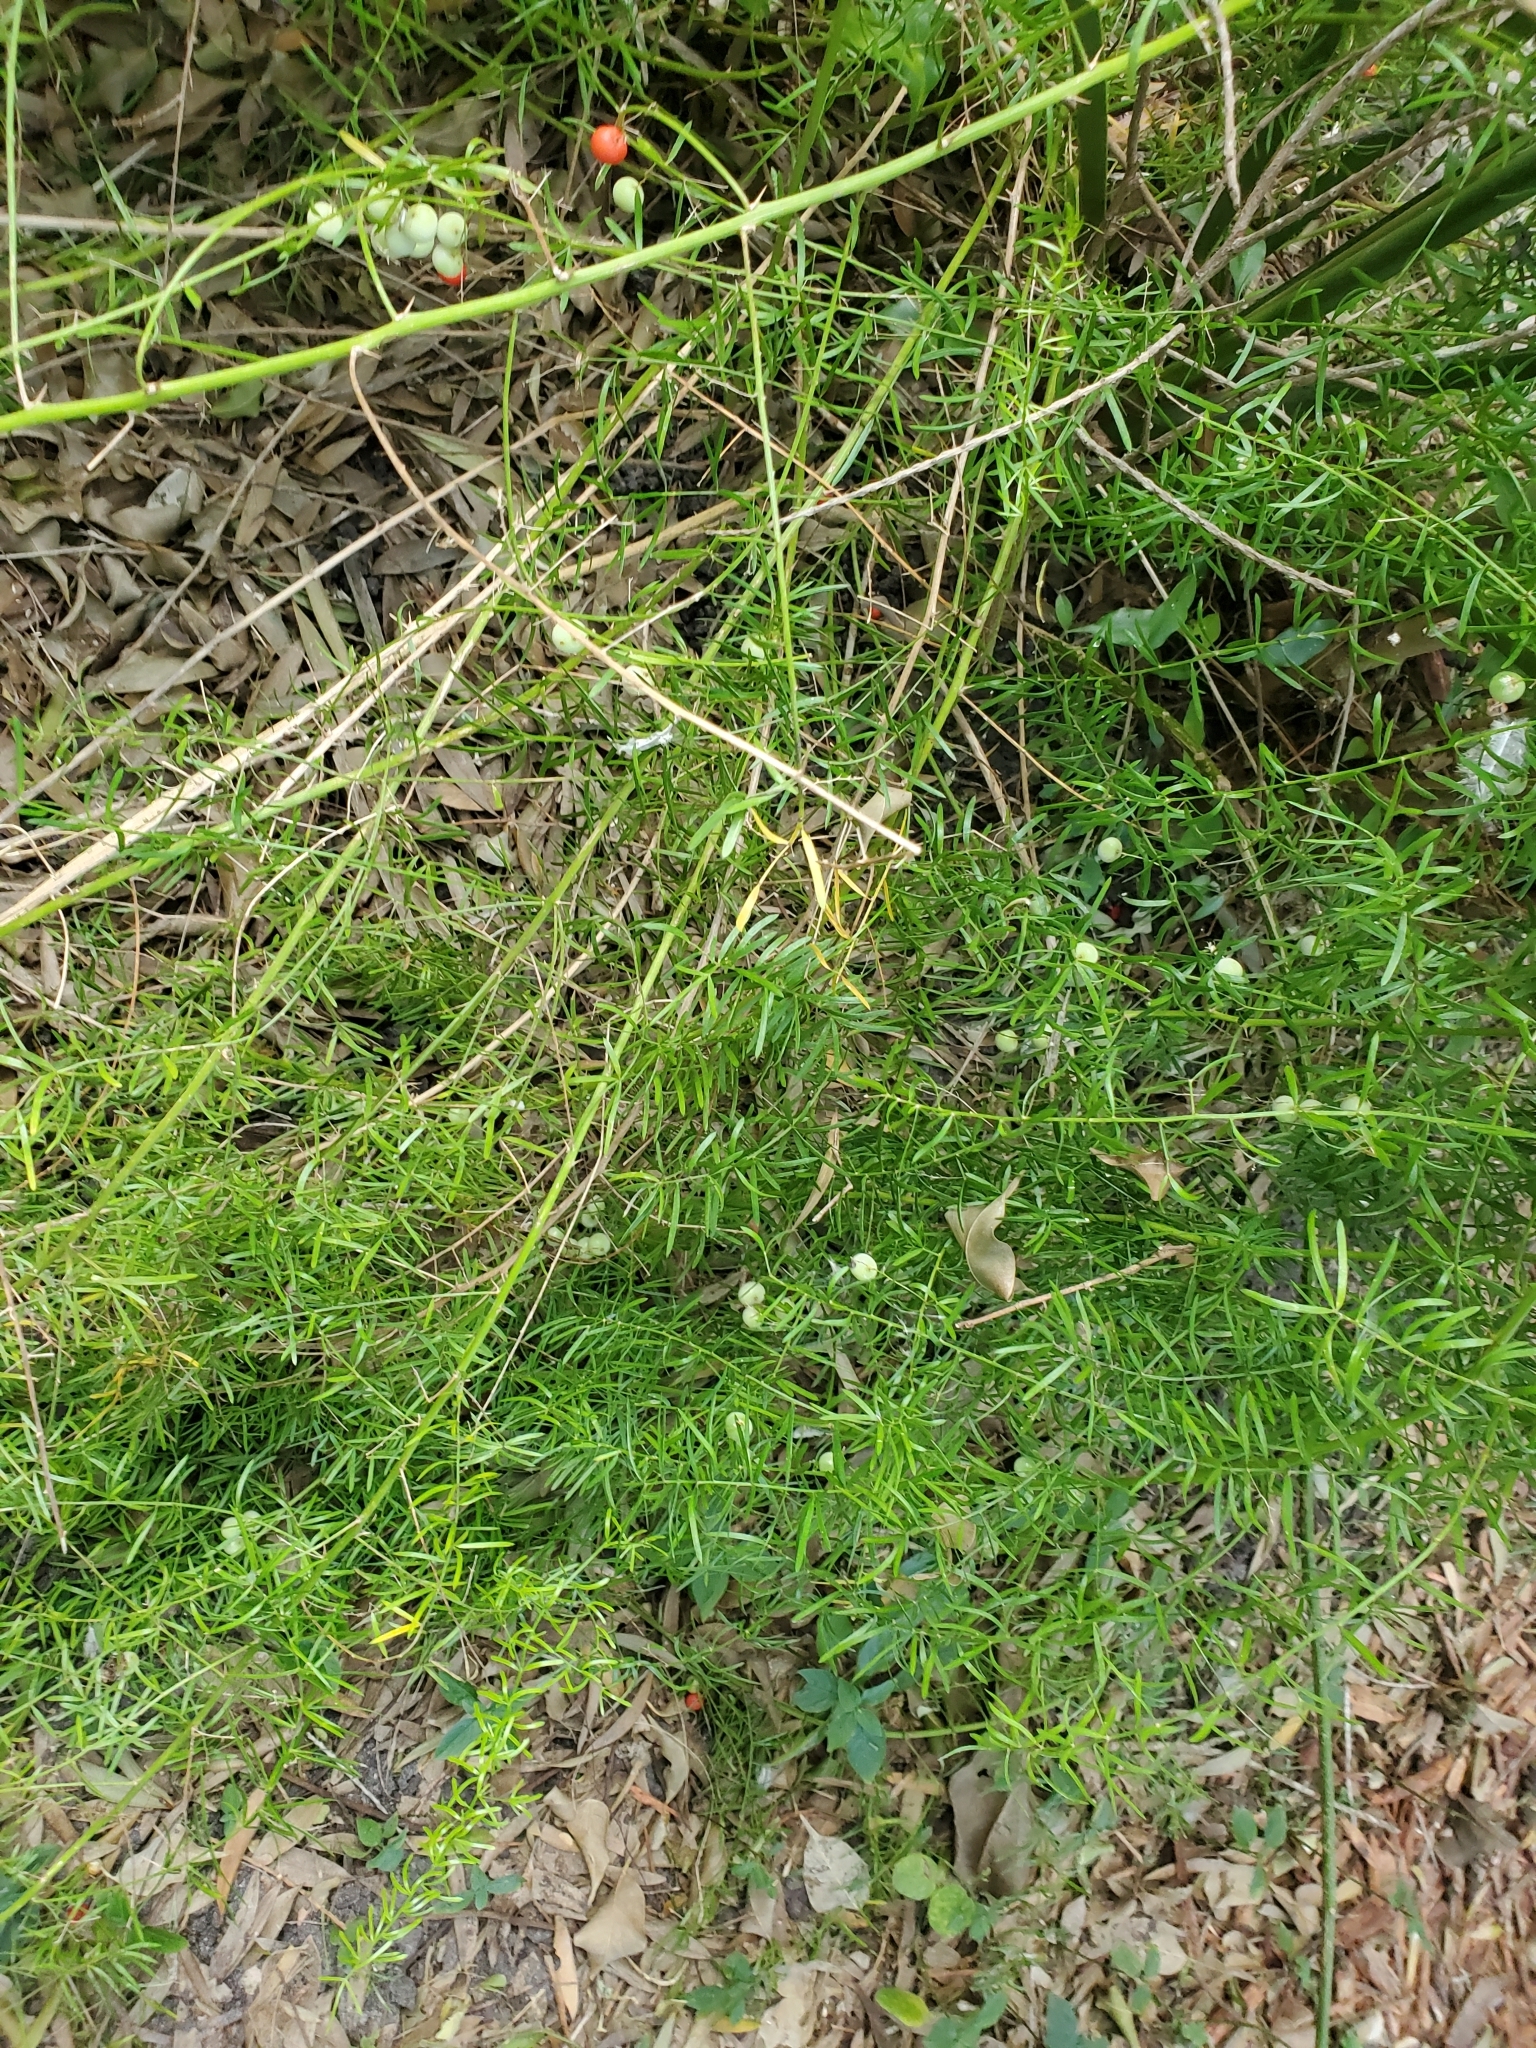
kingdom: Plantae
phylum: Tracheophyta
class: Liliopsida
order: Asparagales
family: Asparagaceae
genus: Asparagus
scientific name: Asparagus aethiopicus
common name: Sprenger's asparagus fern
